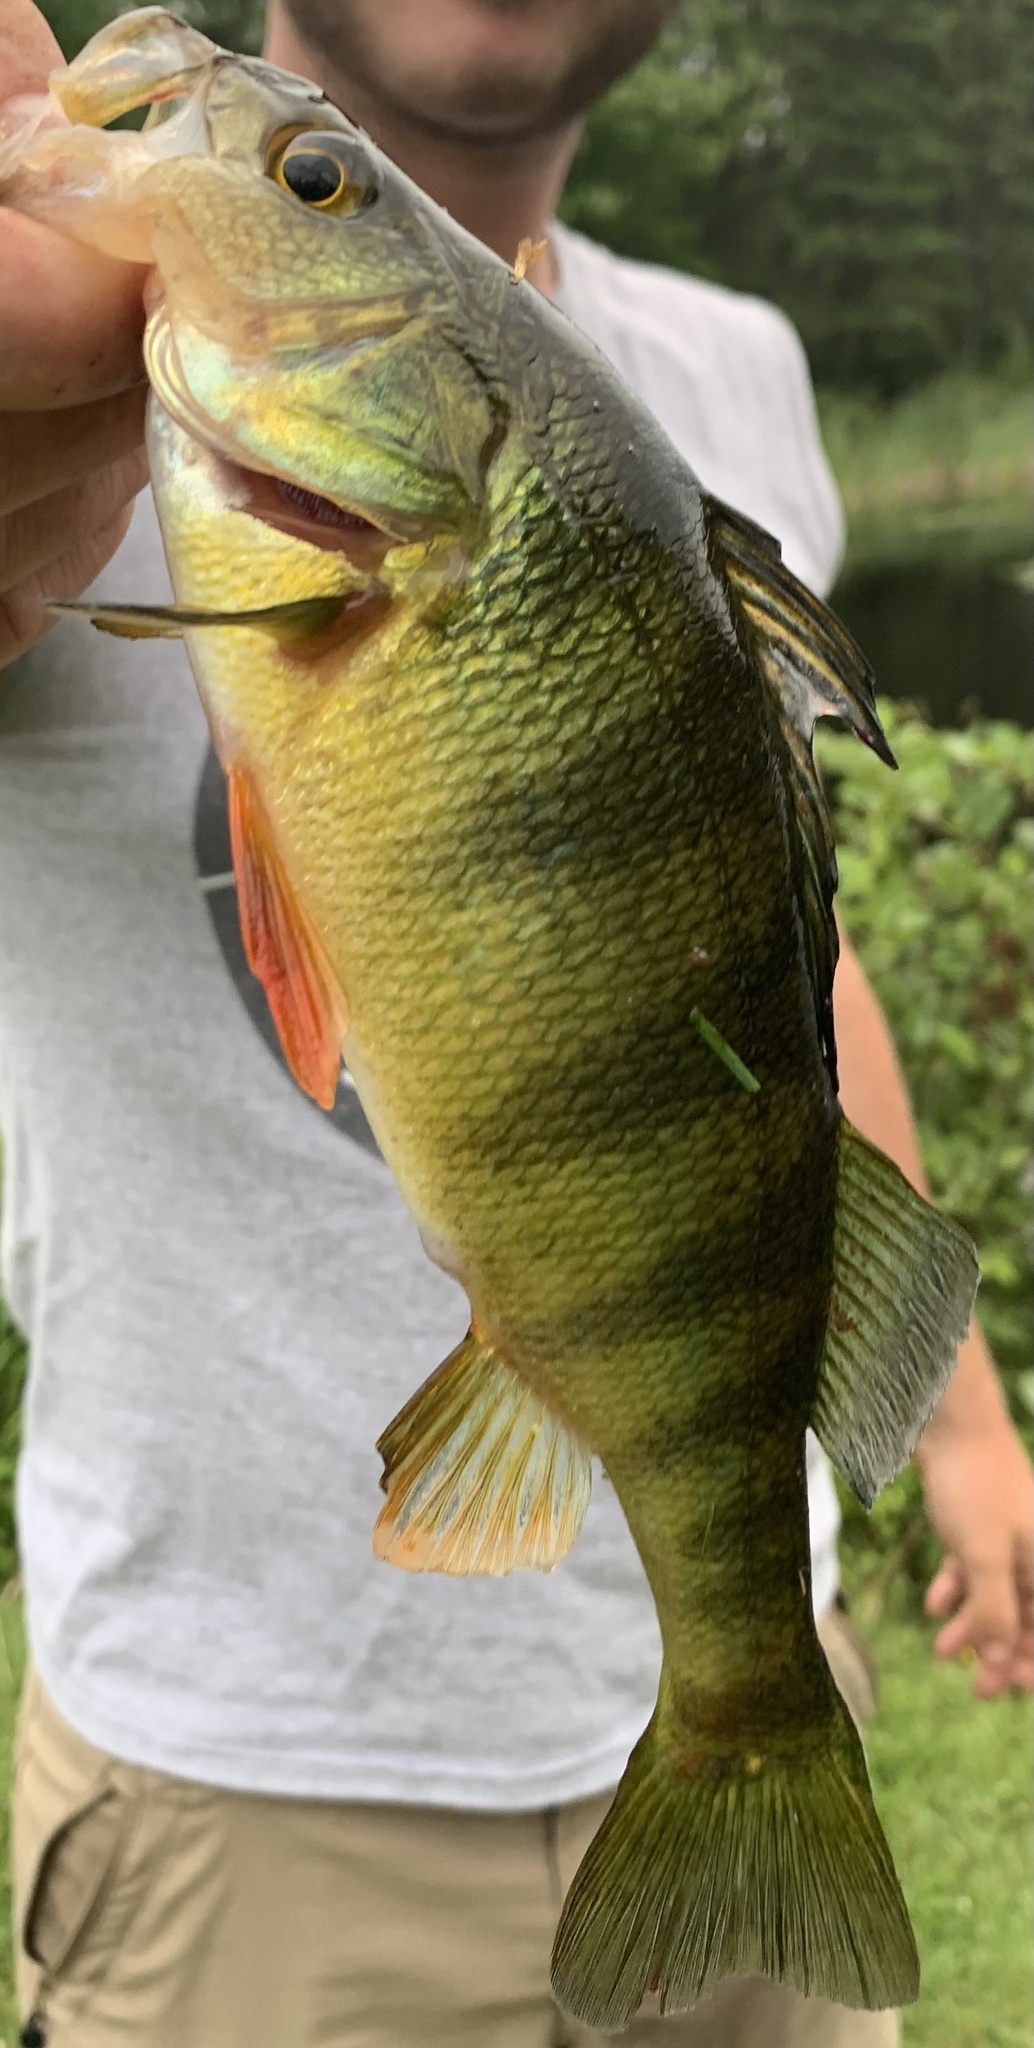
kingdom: Animalia
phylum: Chordata
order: Perciformes
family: Percidae
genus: Perca
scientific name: Perca flavescens
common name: Yellow perch
